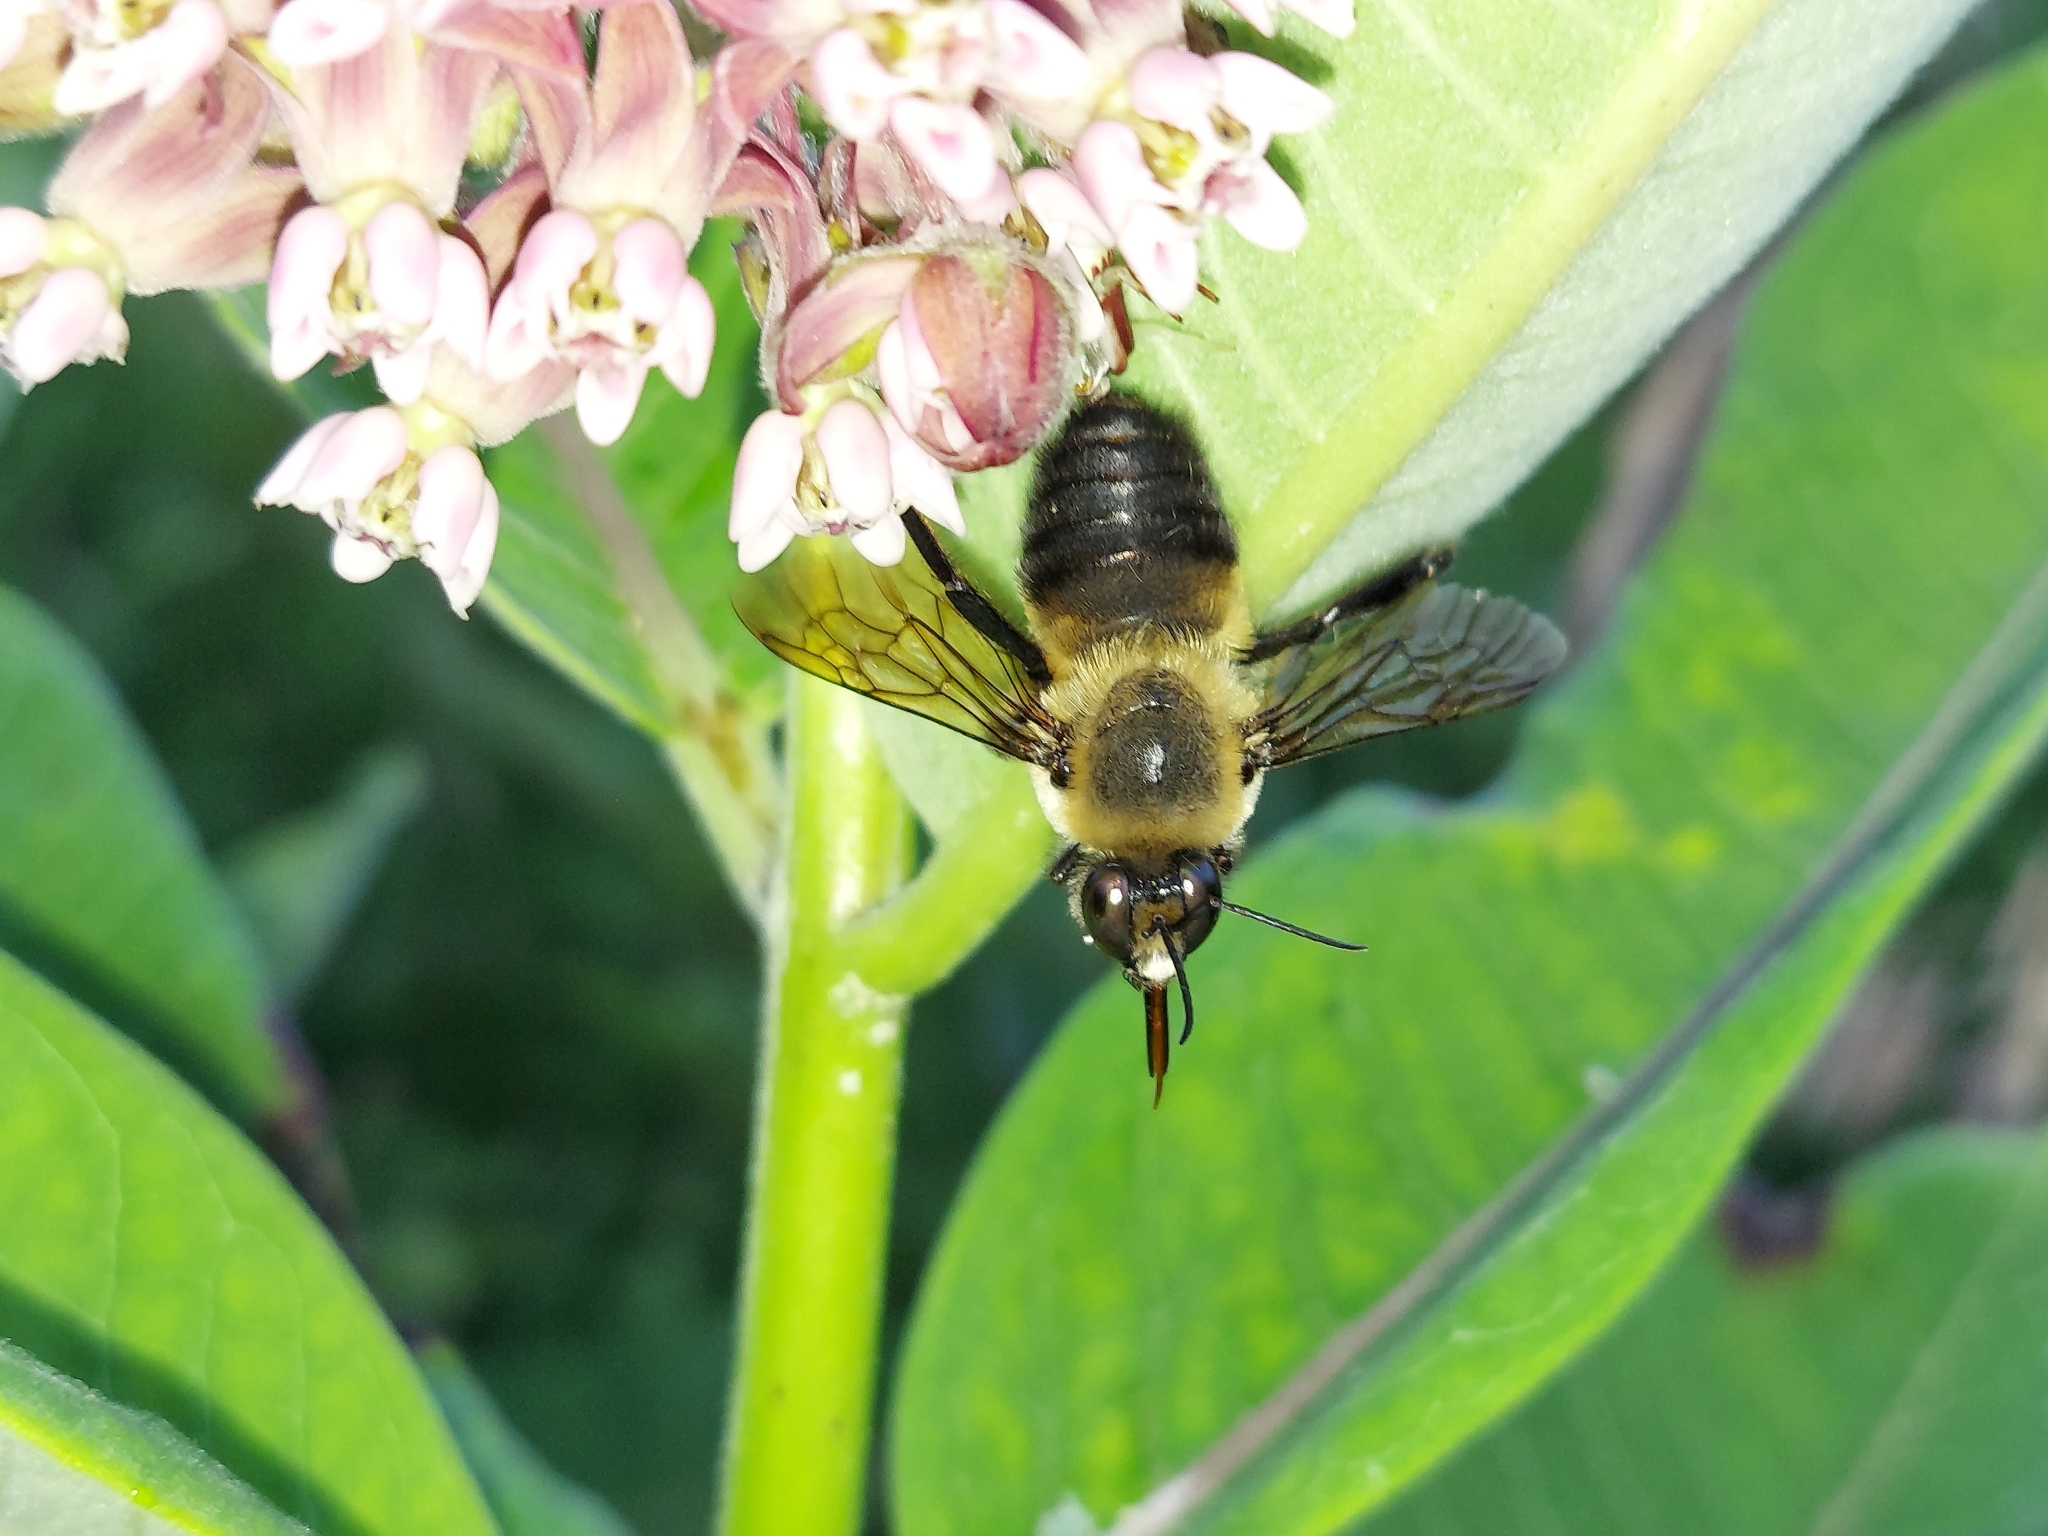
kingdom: Animalia
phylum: Arthropoda
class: Insecta
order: Hymenoptera
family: Apidae
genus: Bombus
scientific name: Bombus griseocollis
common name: Brown-belted bumble bee
